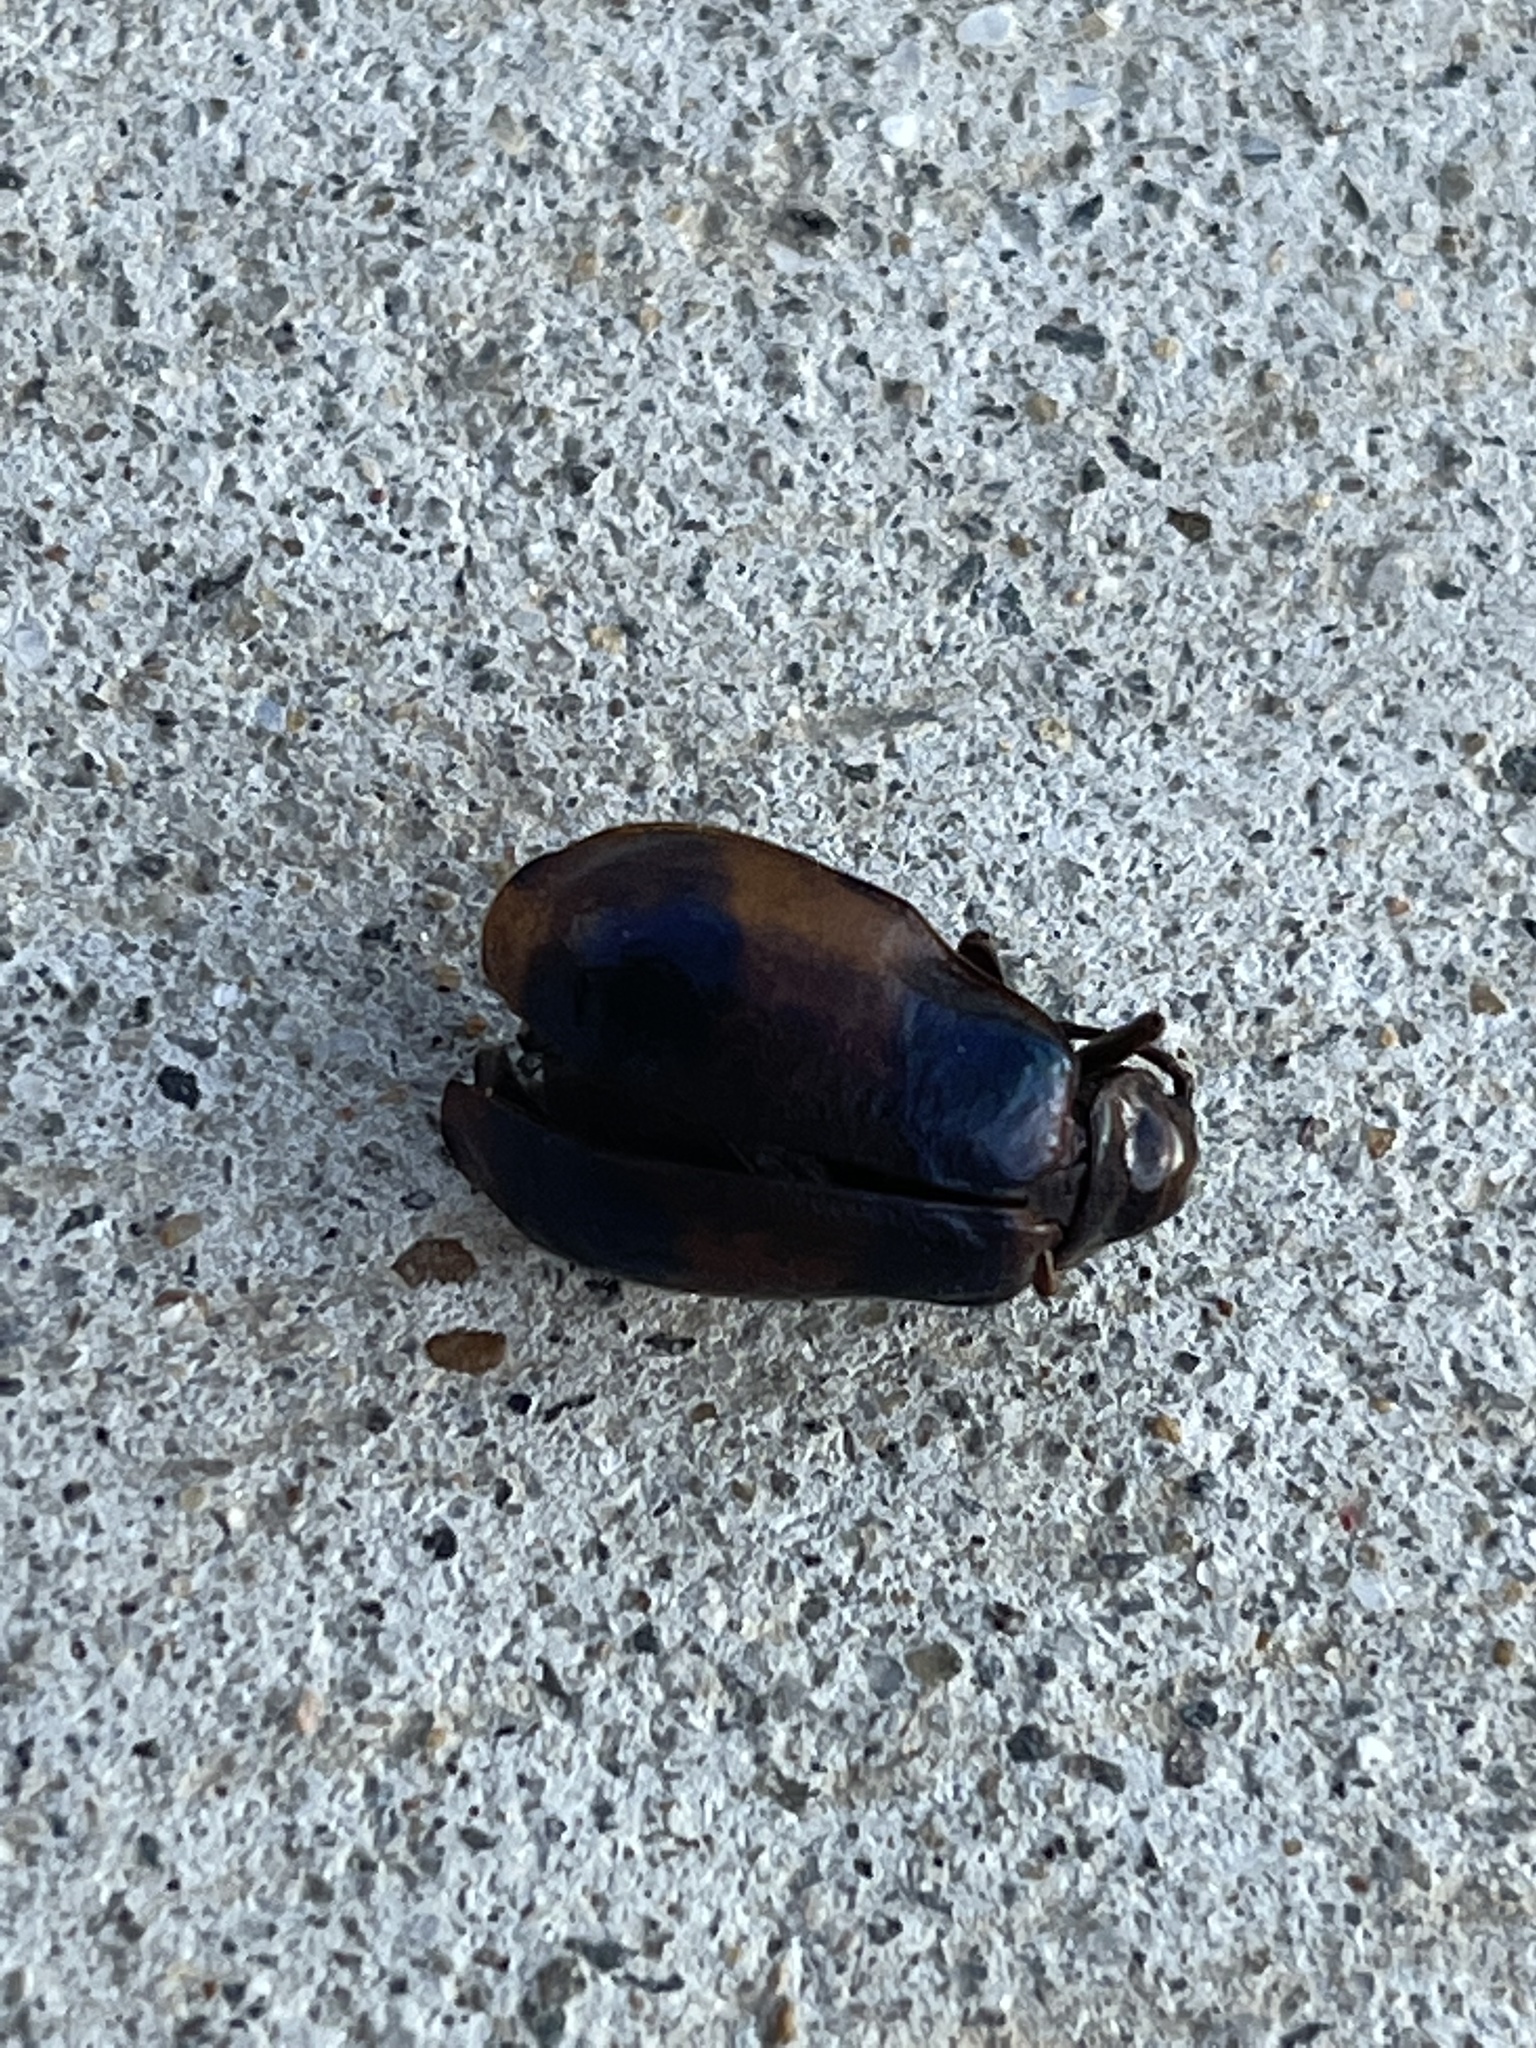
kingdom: Animalia
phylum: Arthropoda
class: Insecta
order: Coleoptera
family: Chrysomelidae
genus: Monocesta
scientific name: Monocesta coryli
